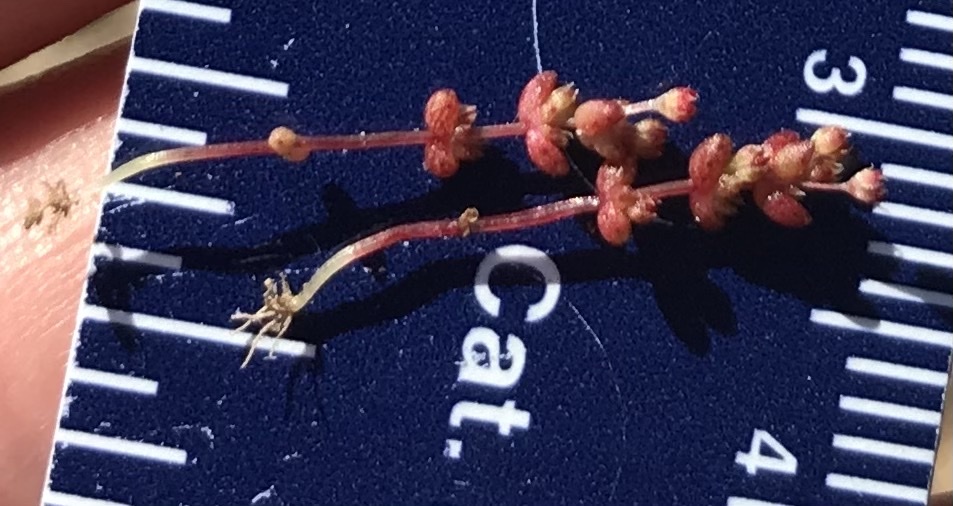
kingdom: Plantae
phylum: Tracheophyta
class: Magnoliopsida
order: Saxifragales
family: Crassulaceae
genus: Crassula
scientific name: Crassula connata
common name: Erect pygmyweed
